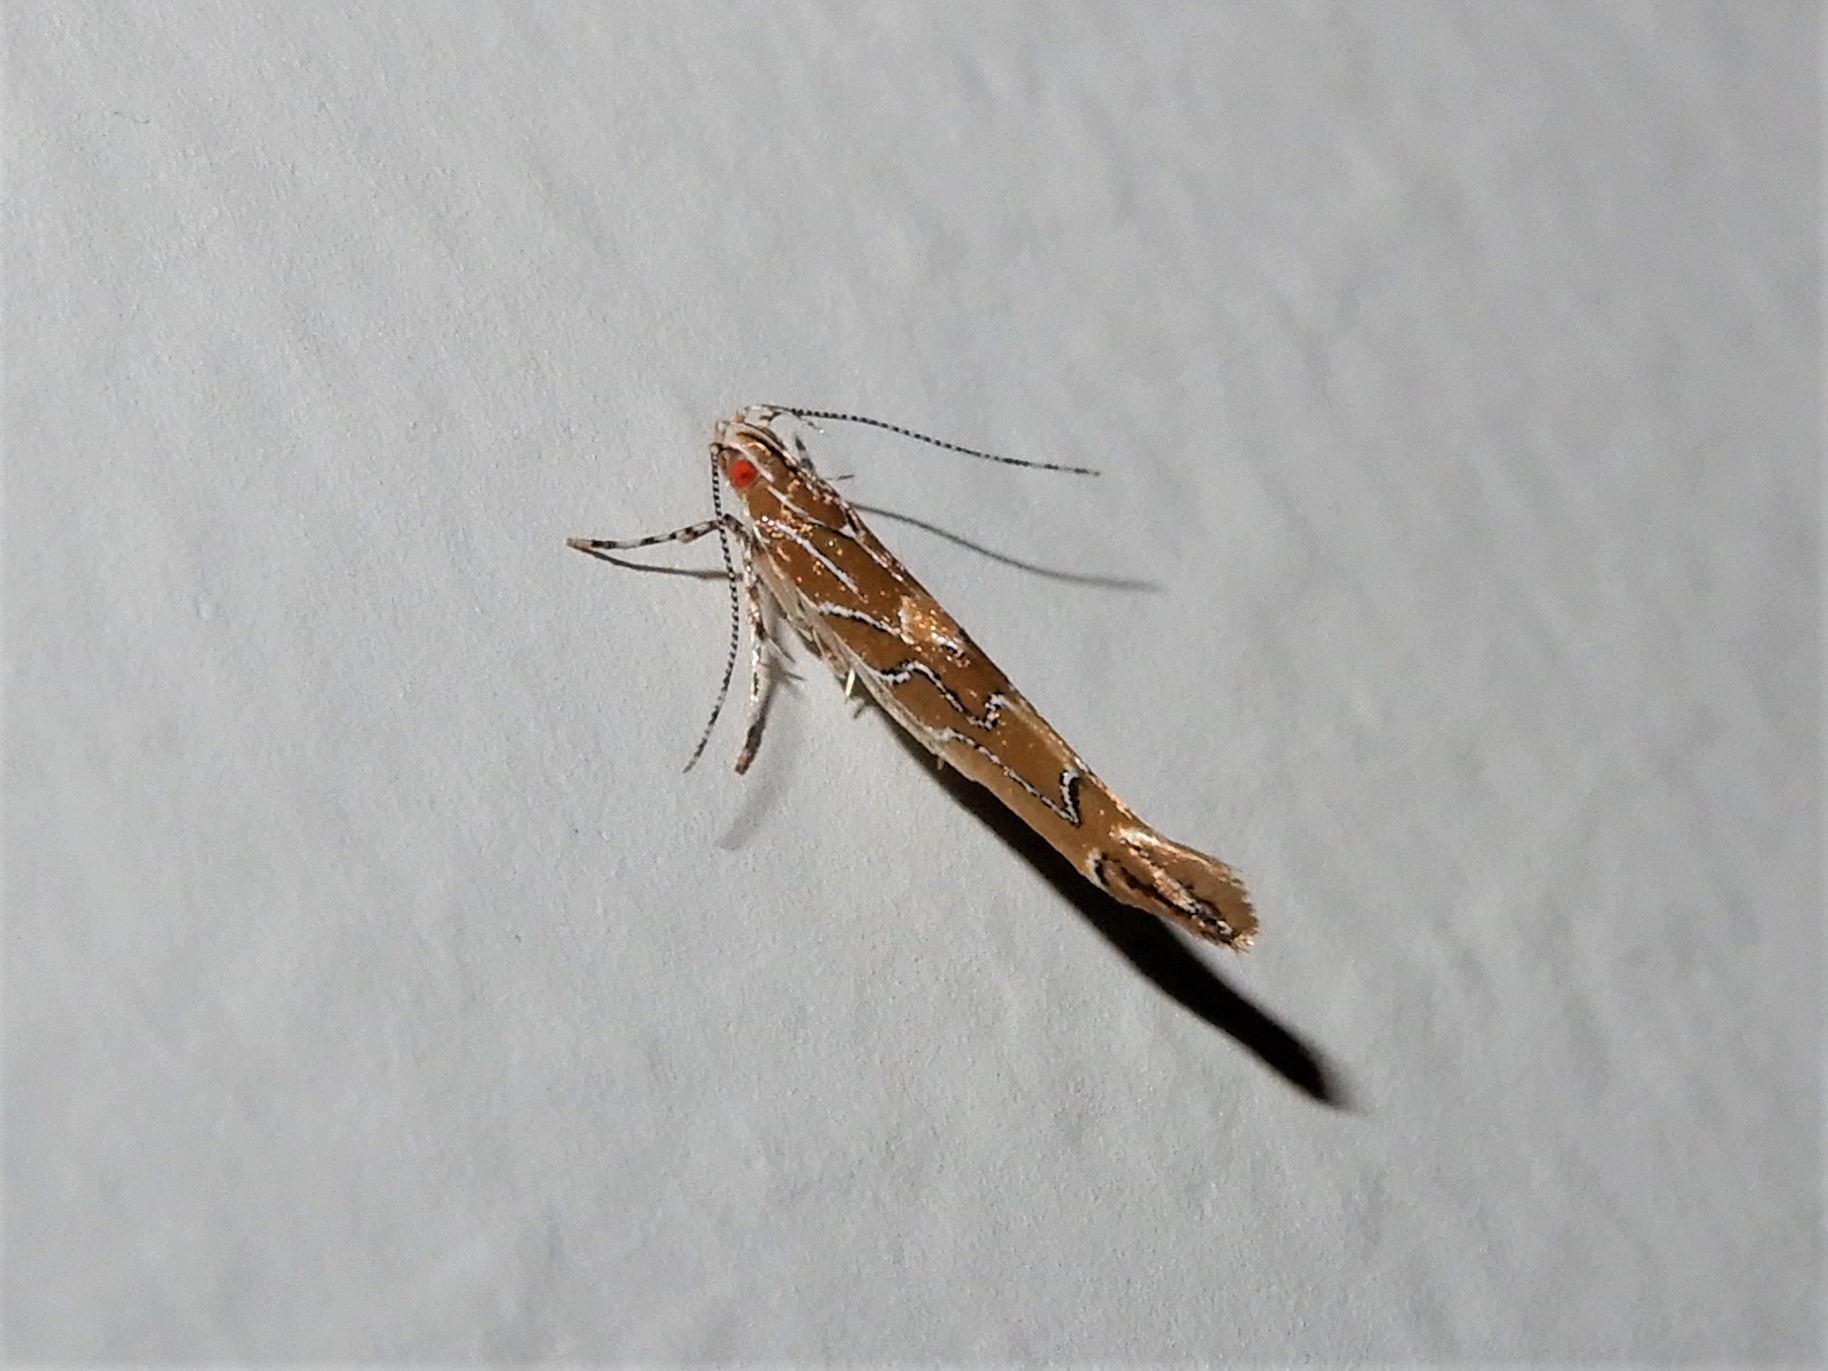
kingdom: Animalia
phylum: Arthropoda
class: Insecta
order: Lepidoptera
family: Cosmopterigidae
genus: Pyroderces
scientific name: Pyroderces apparitella
